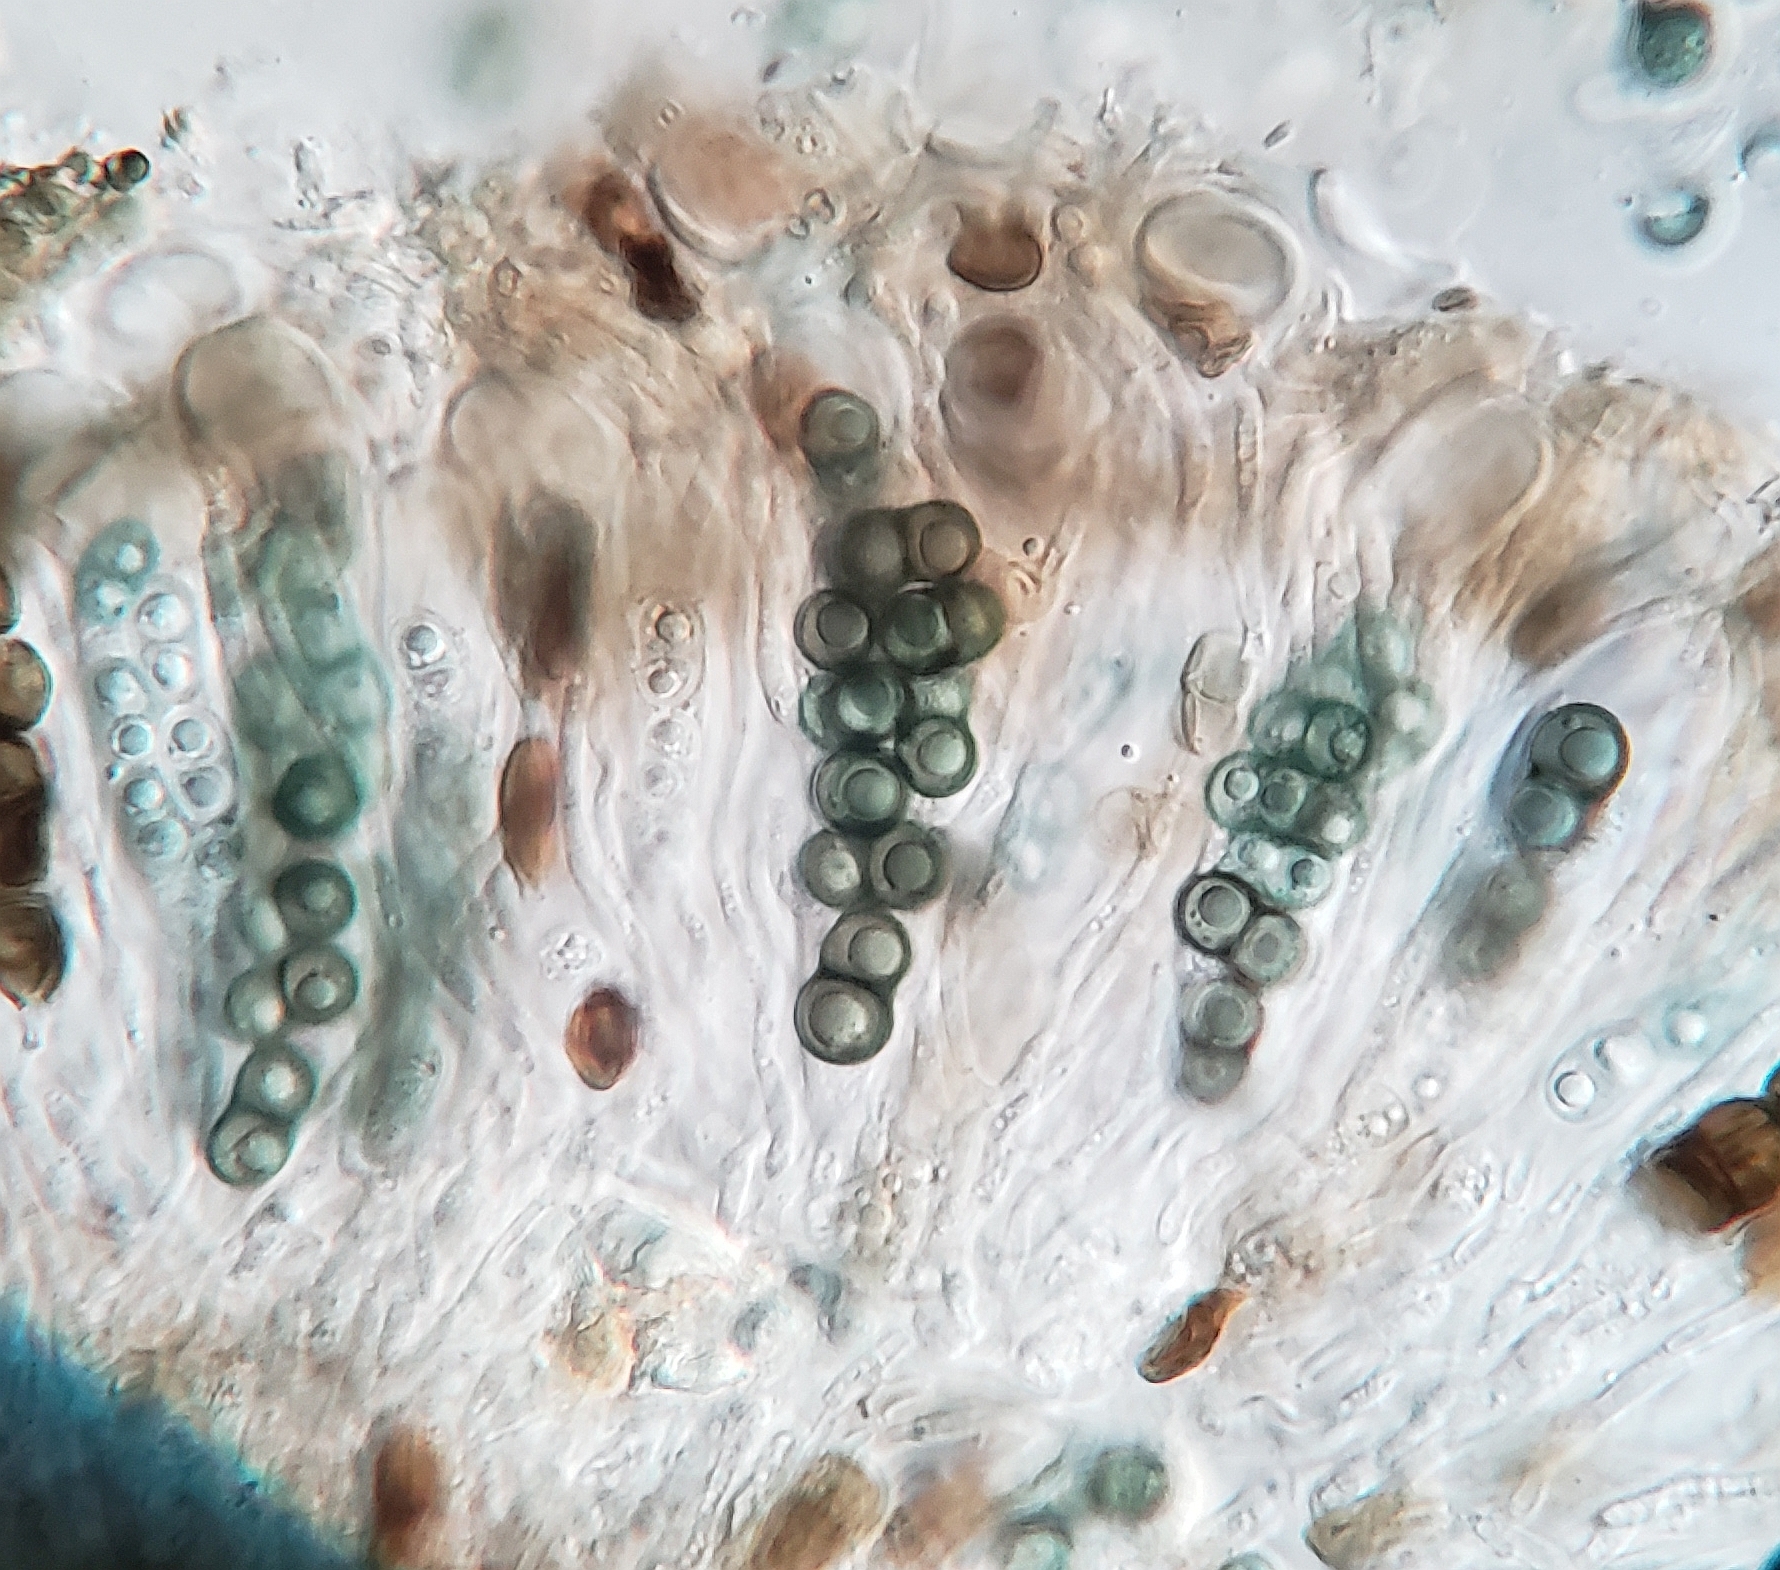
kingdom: Fungi
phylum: Ascomycota
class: Lecanoromycetes
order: Caliciales
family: Caliciaceae
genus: Buellia
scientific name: Buellia dakotensis
